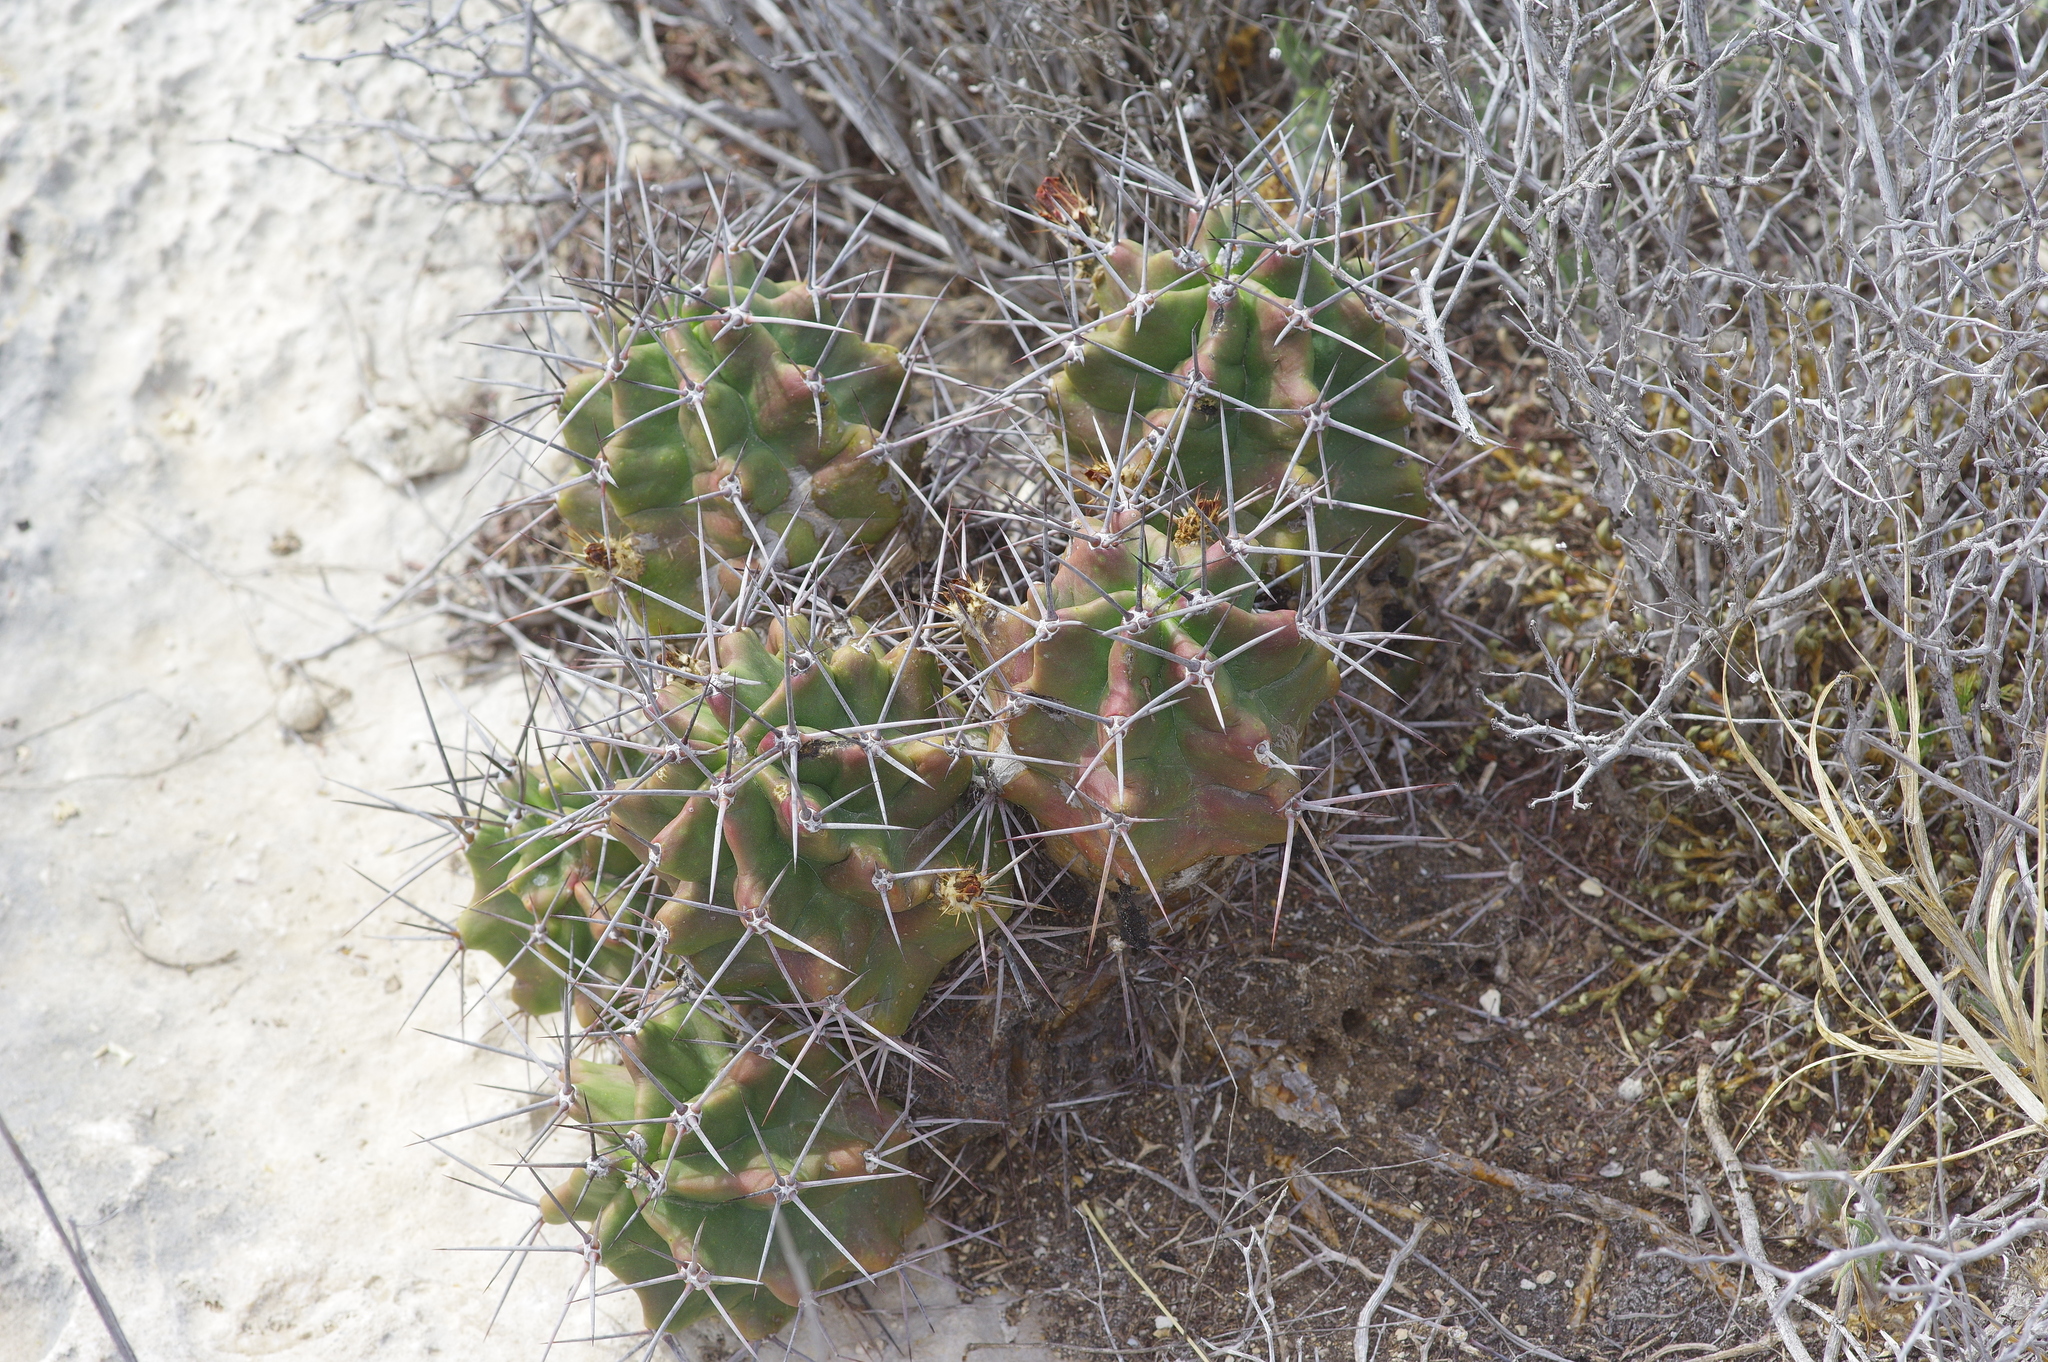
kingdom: Plantae
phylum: Tracheophyta
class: Magnoliopsida
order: Caryophyllales
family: Cactaceae
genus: Echinocereus
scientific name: Echinocereus coccineus
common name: Scarlet hedgehog cactus
